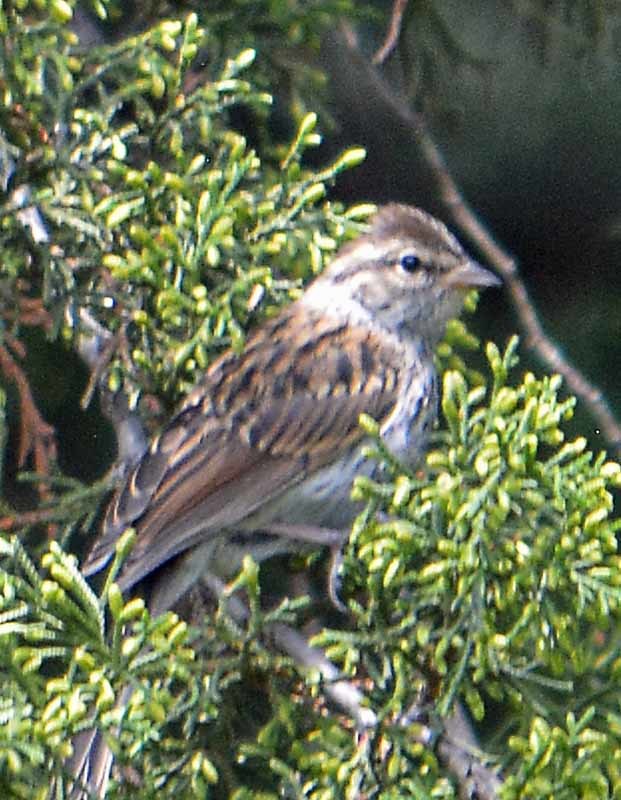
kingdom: Animalia
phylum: Chordata
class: Aves
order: Passeriformes
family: Passerellidae
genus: Spizella
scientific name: Spizella passerina
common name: Chipping sparrow
